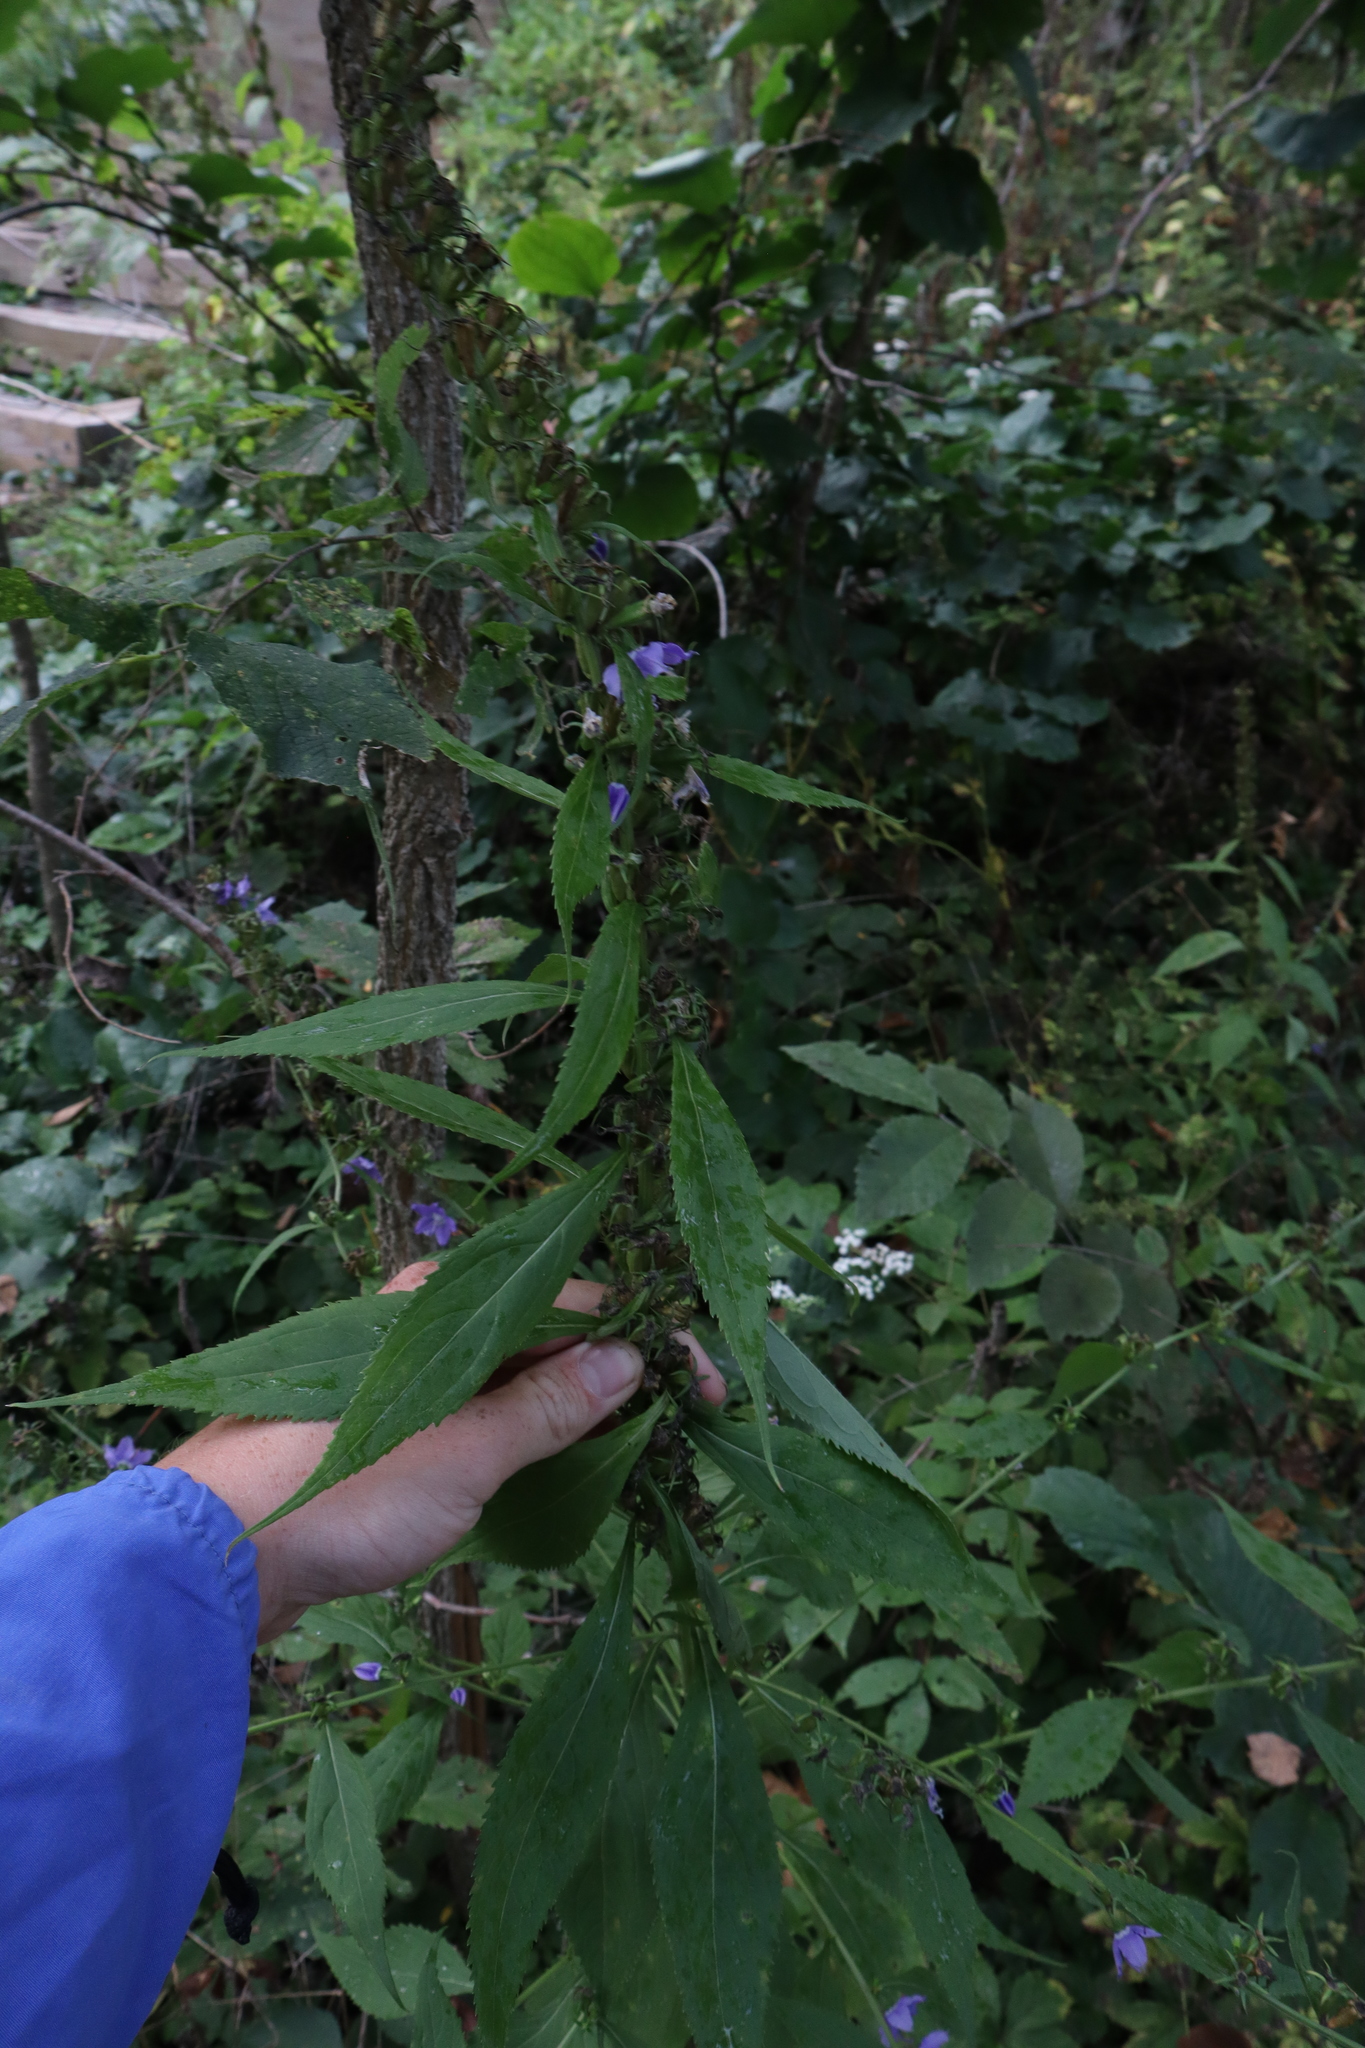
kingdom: Plantae
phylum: Tracheophyta
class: Magnoliopsida
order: Asterales
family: Campanulaceae
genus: Campanulastrum
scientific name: Campanulastrum americanum
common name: American bellflower
